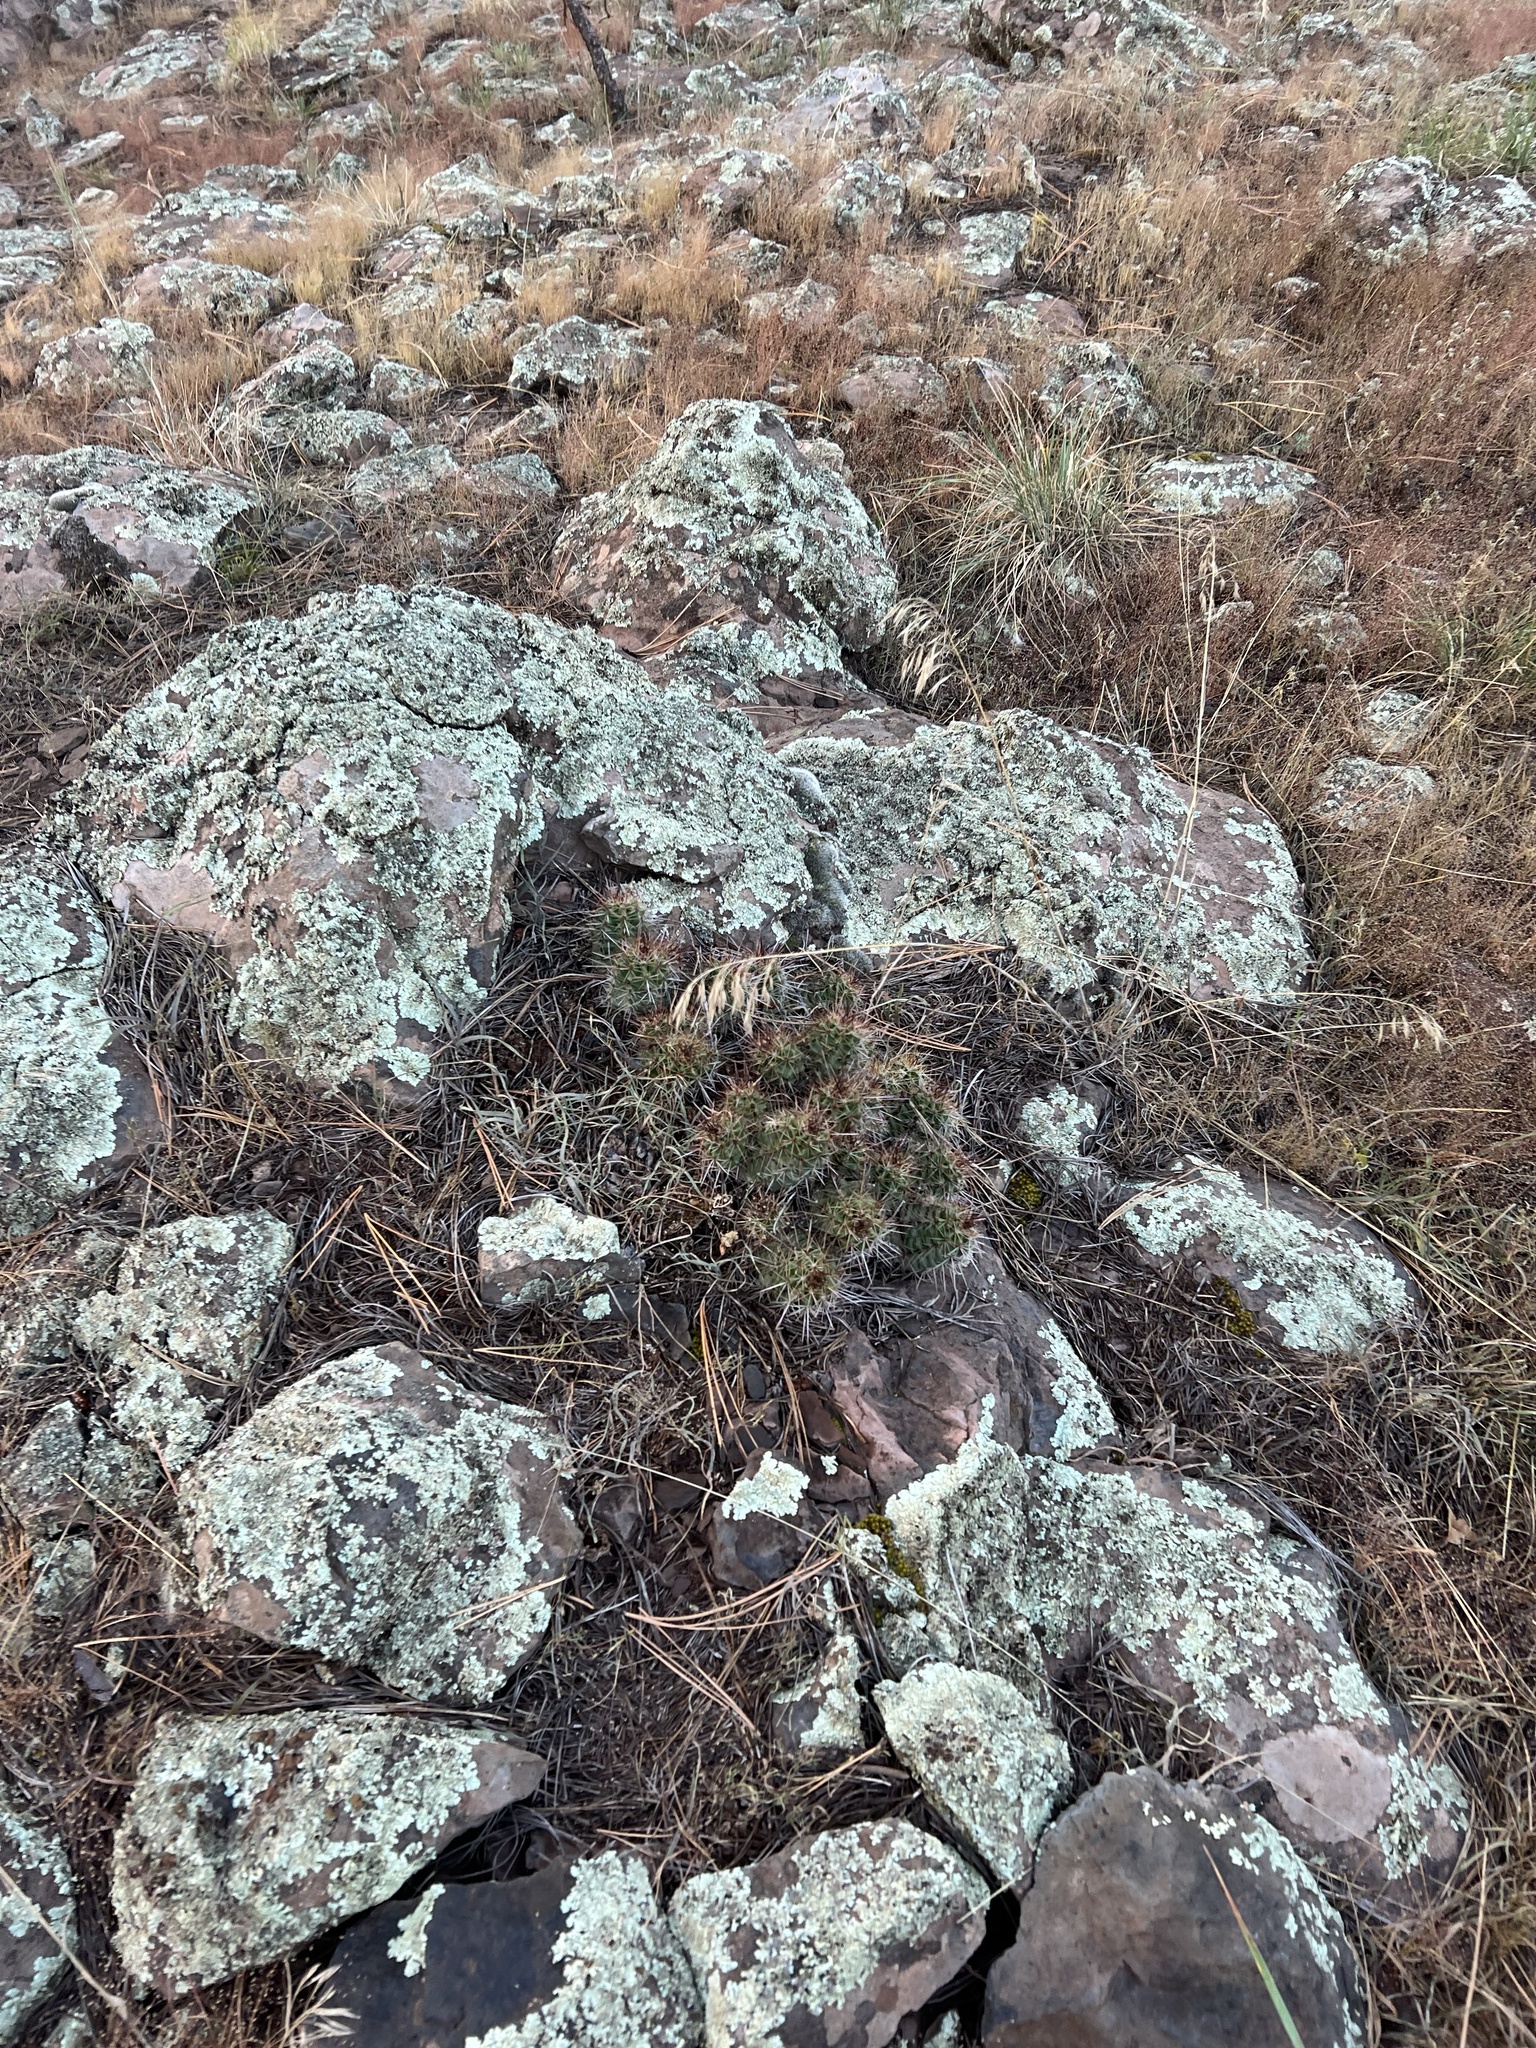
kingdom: Plantae
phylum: Tracheophyta
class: Magnoliopsida
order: Caryophyllales
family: Cactaceae
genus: Echinocereus
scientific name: Echinocereus bakeri
